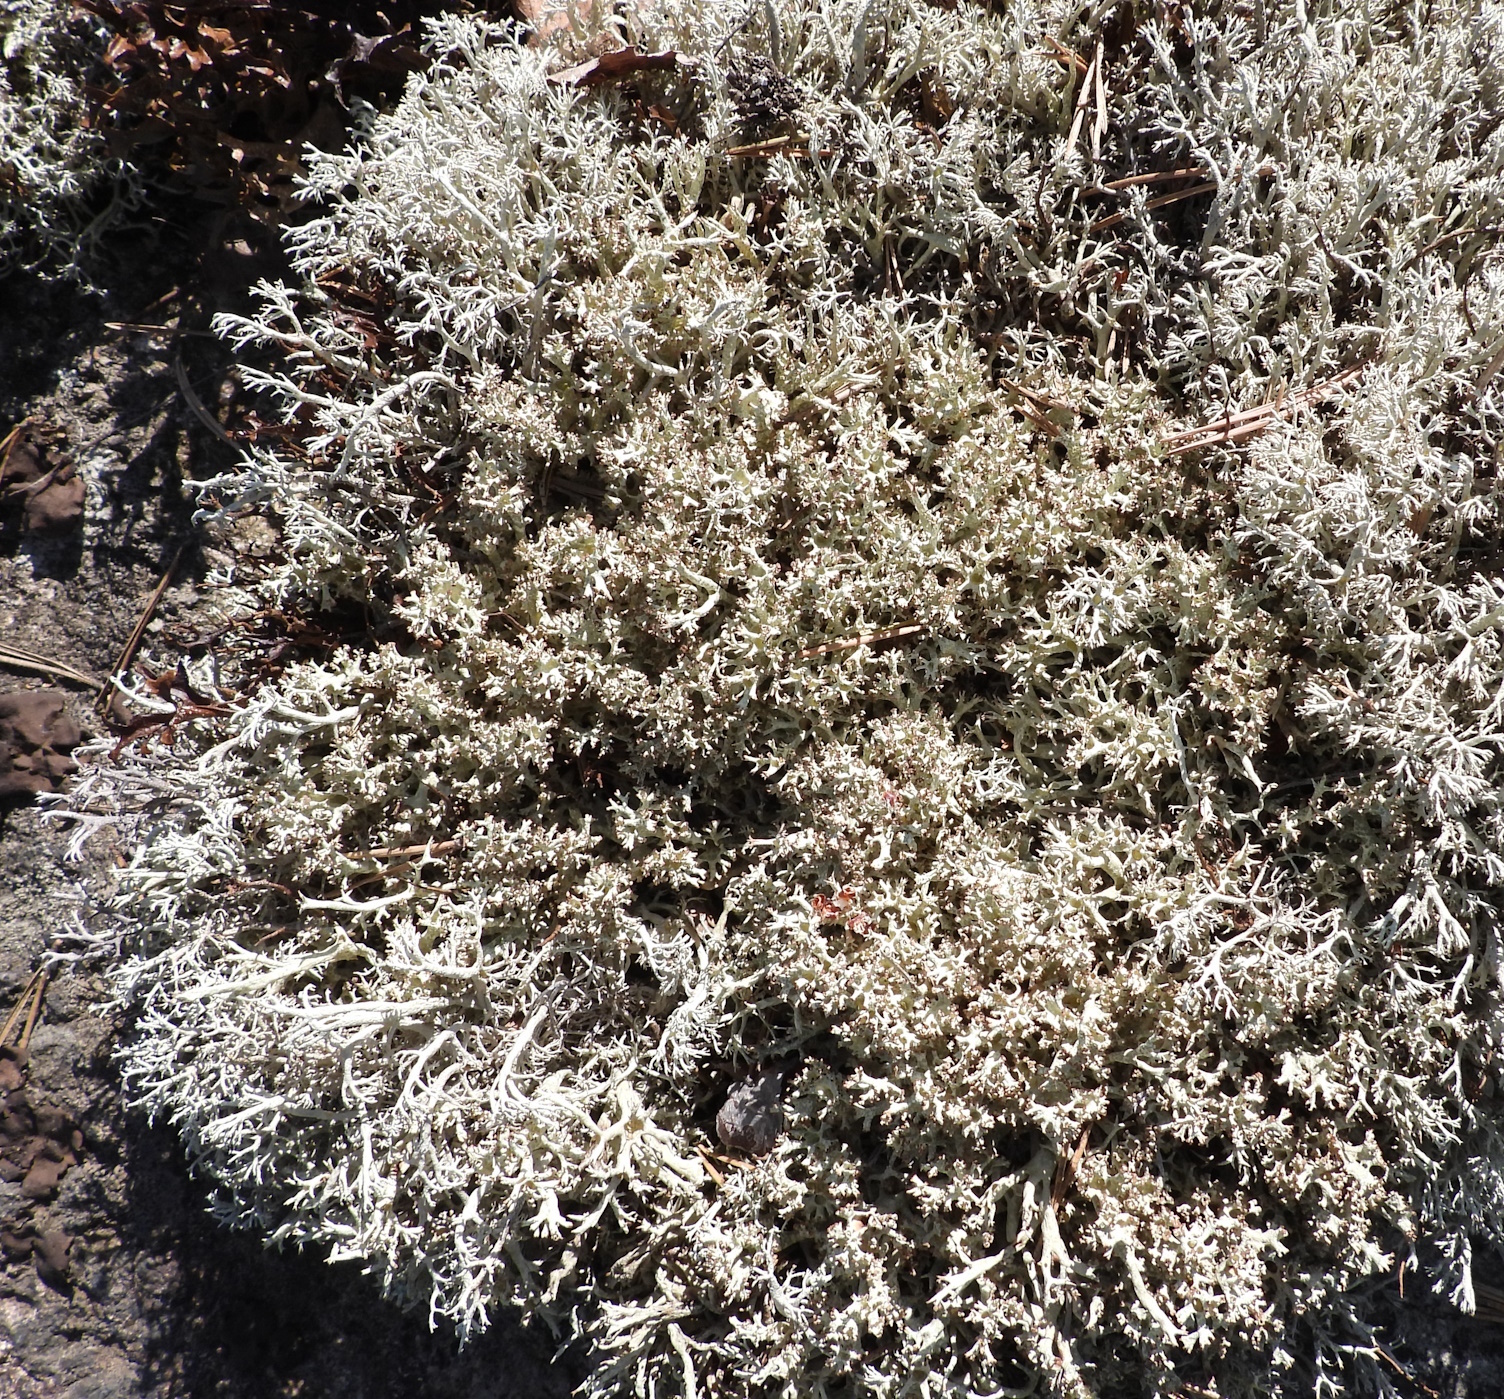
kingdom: Fungi
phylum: Ascomycota
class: Lecanoromycetes
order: Lecanorales
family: Cladoniaceae
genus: Cladonia
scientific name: Cladonia uncialis
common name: Thorn lichen
